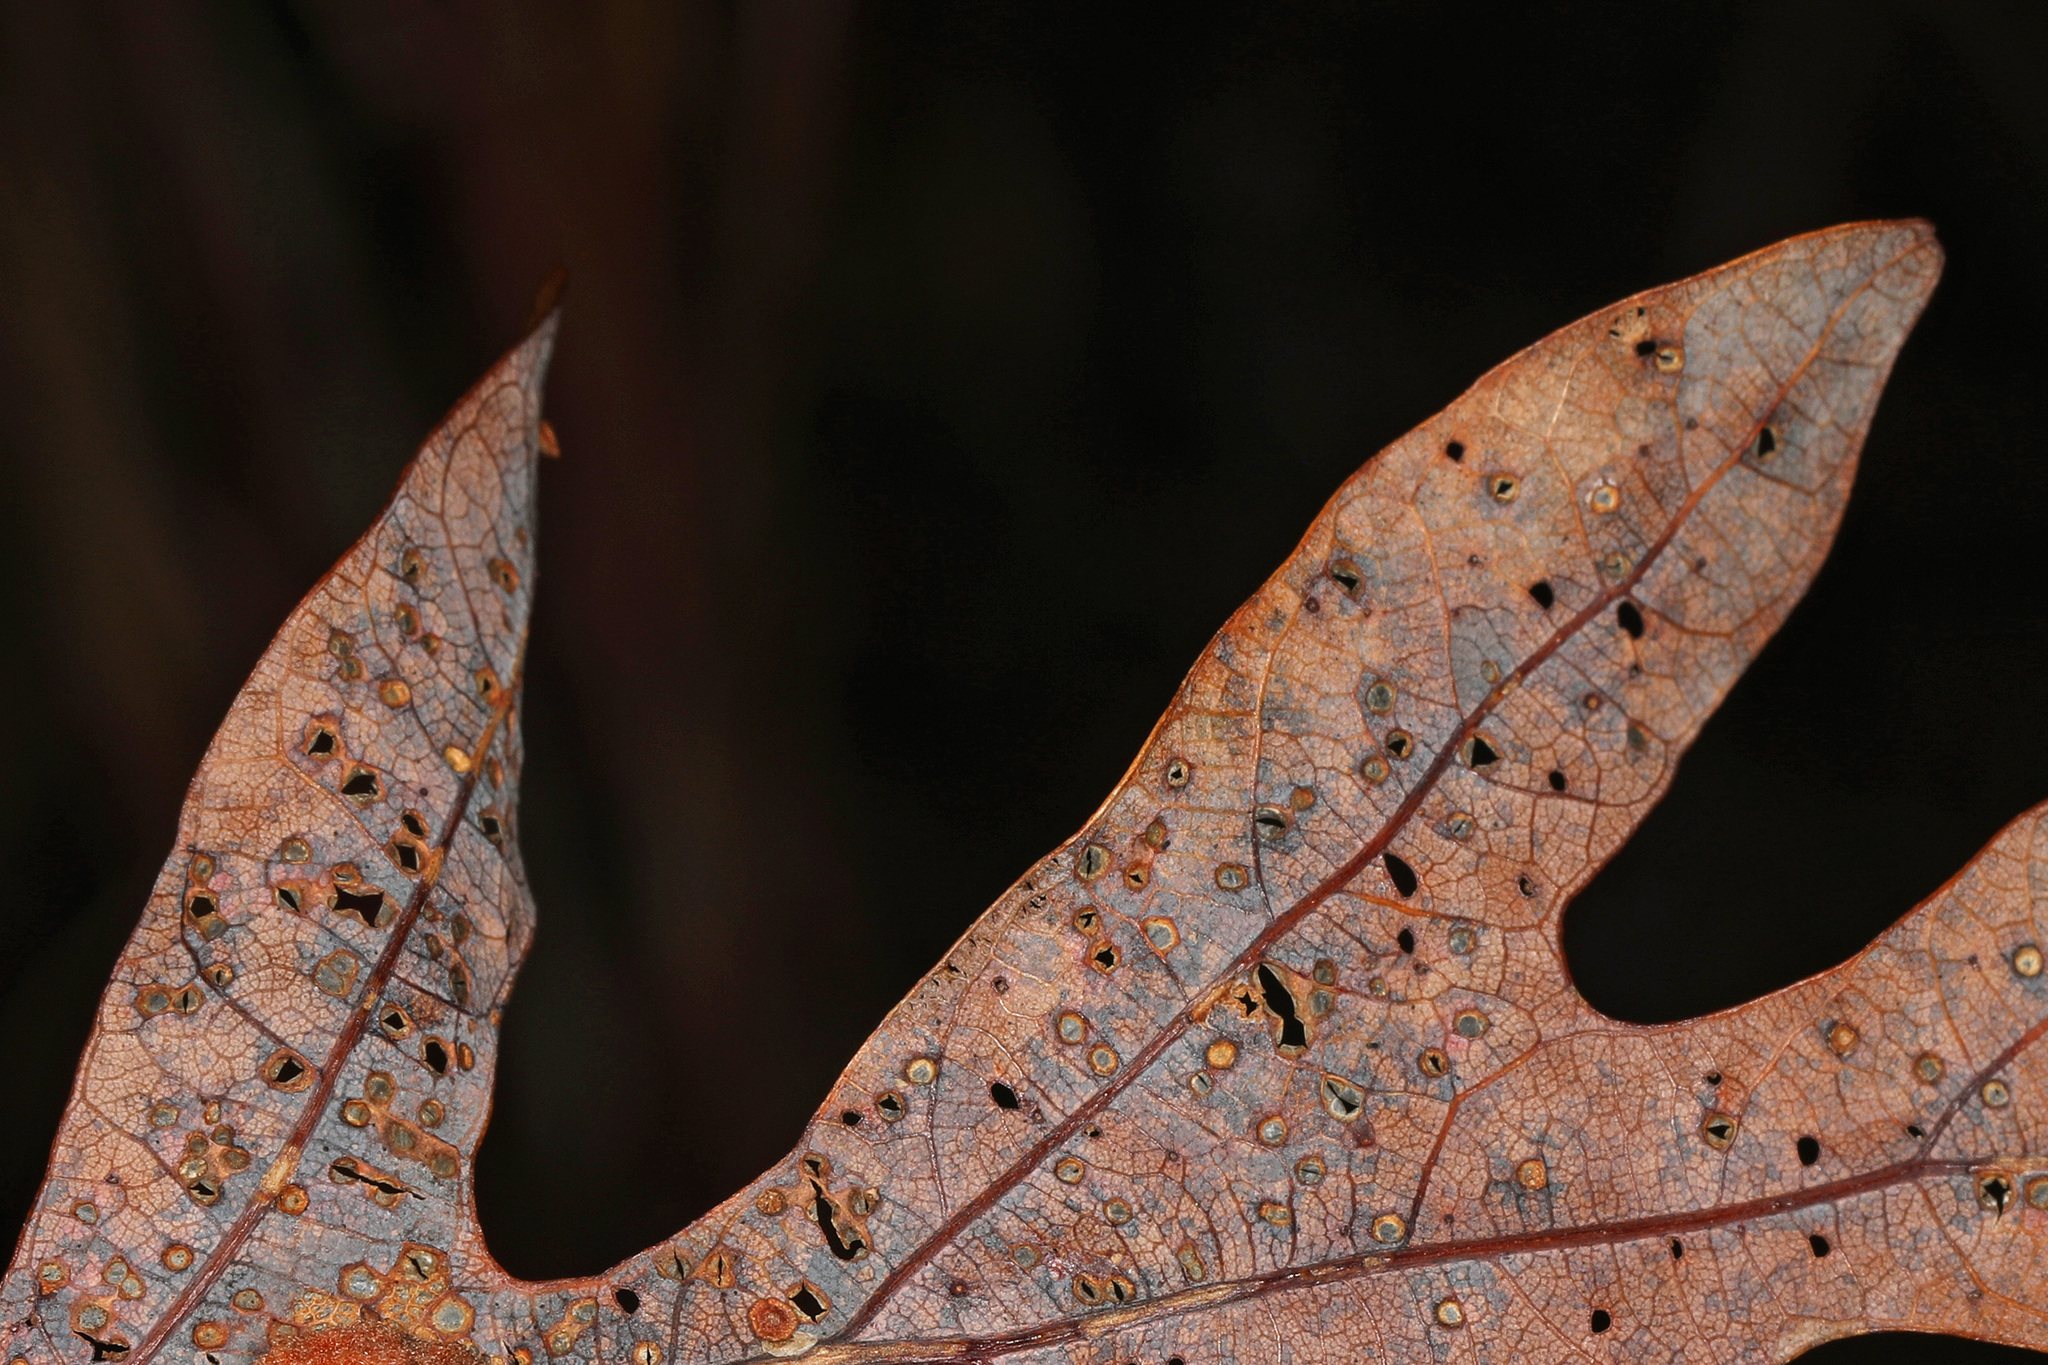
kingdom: Animalia
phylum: Arthropoda
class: Insecta
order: Hymenoptera
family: Cynipidae
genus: Neuroterus
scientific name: Neuroterus
